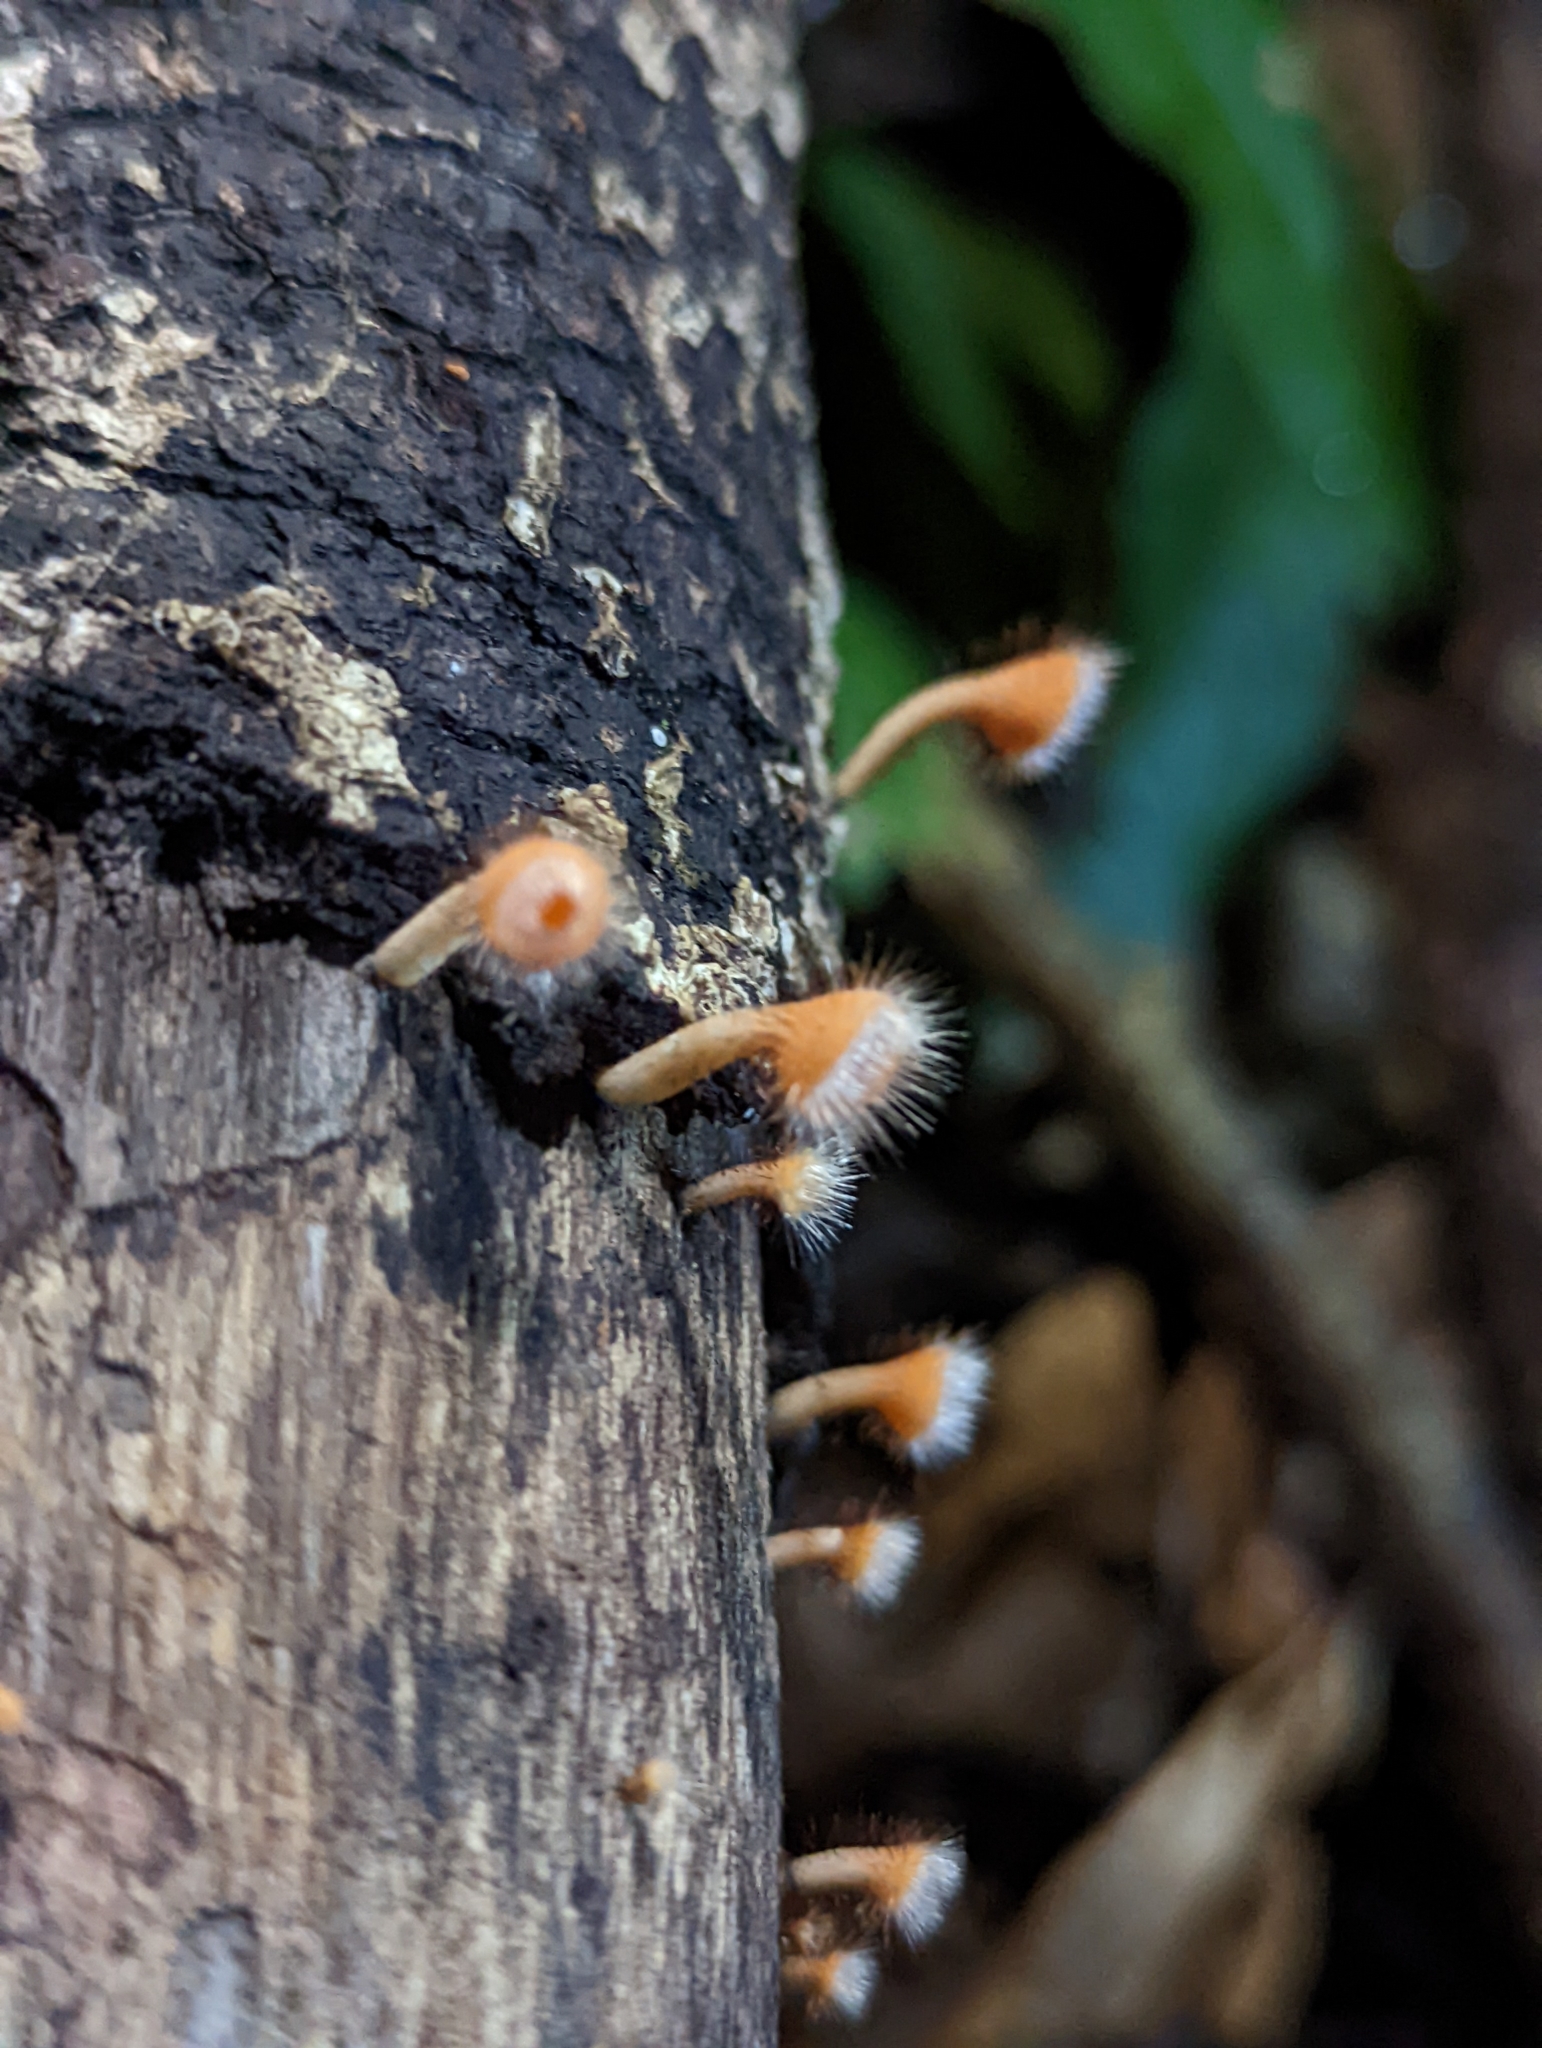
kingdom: Fungi
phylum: Ascomycota
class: Pezizomycetes
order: Pezizales
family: Sarcoscyphaceae
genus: Cookeina
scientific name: Cookeina tricholoma
